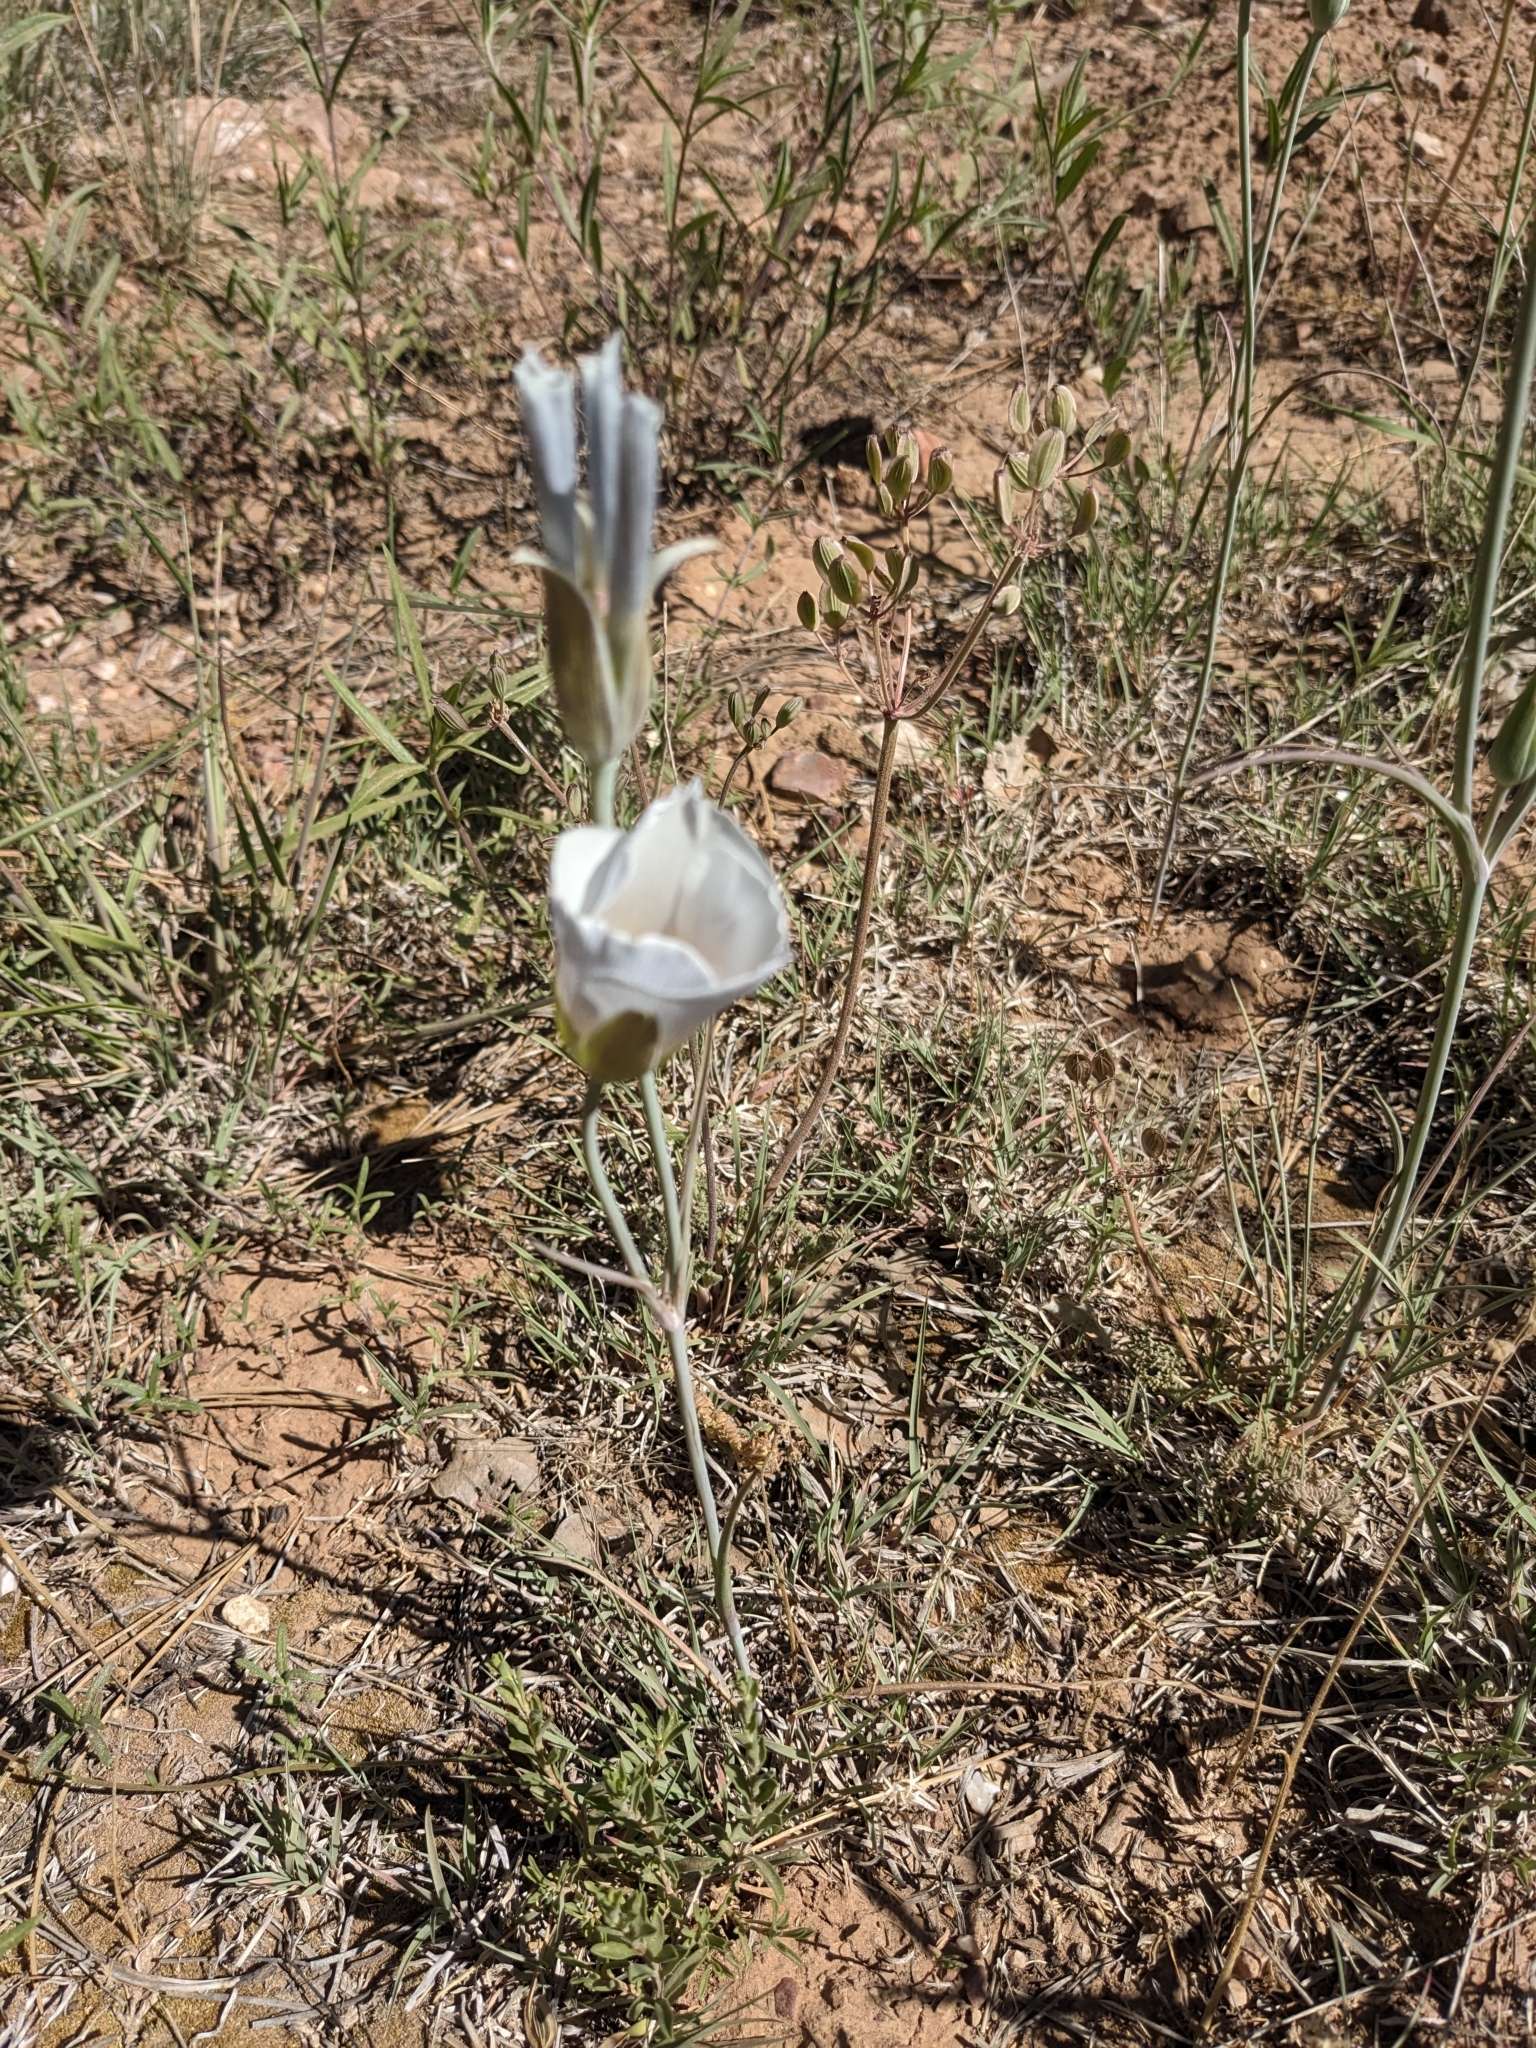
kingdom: Plantae
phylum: Tracheophyta
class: Liliopsida
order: Liliales
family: Liliaceae
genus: Calochortus
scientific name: Calochortus ambiguus
